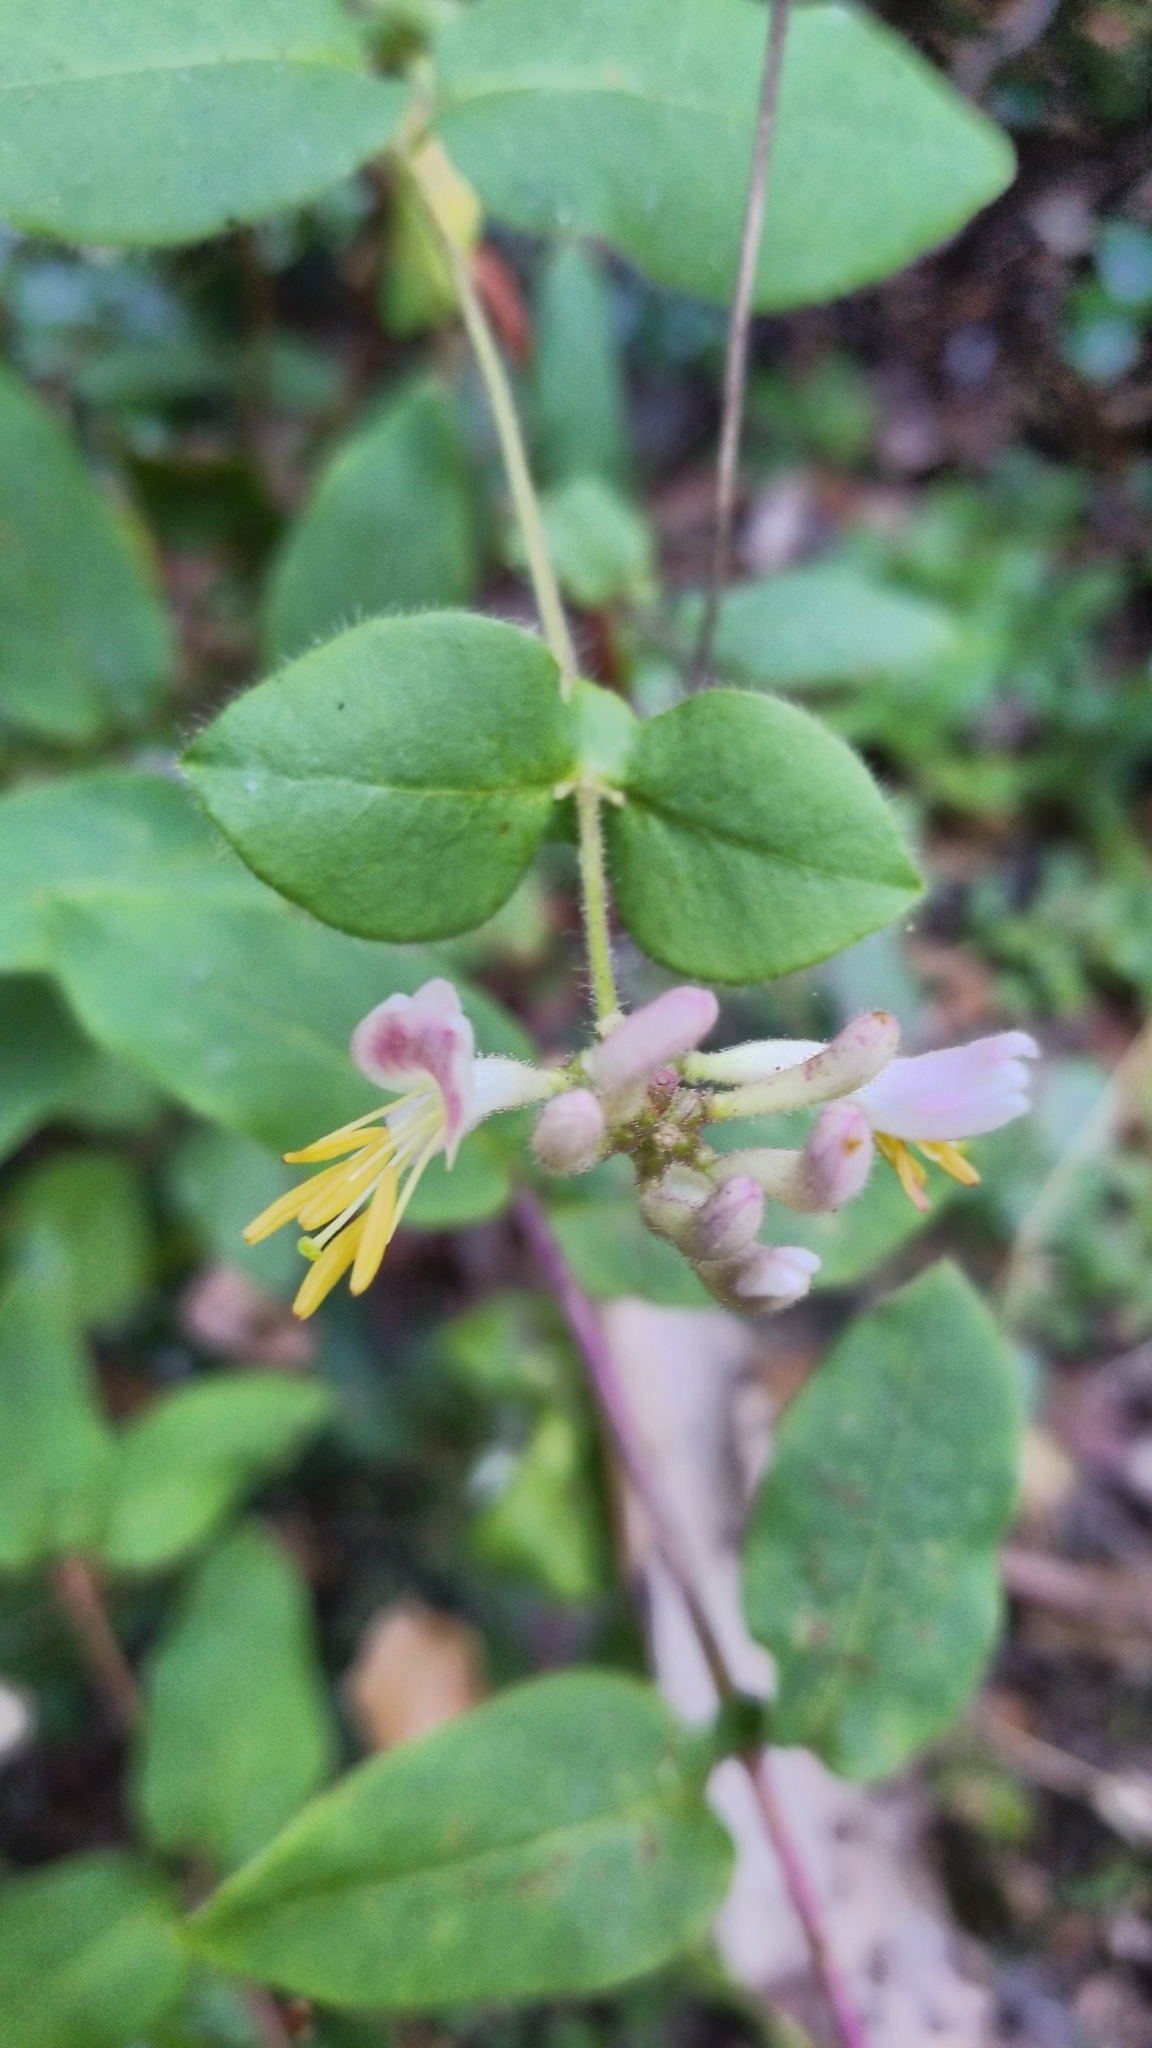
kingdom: Plantae
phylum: Tracheophyta
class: Magnoliopsida
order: Dipsacales
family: Caprifoliaceae
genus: Lonicera
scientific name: Lonicera hispidula
